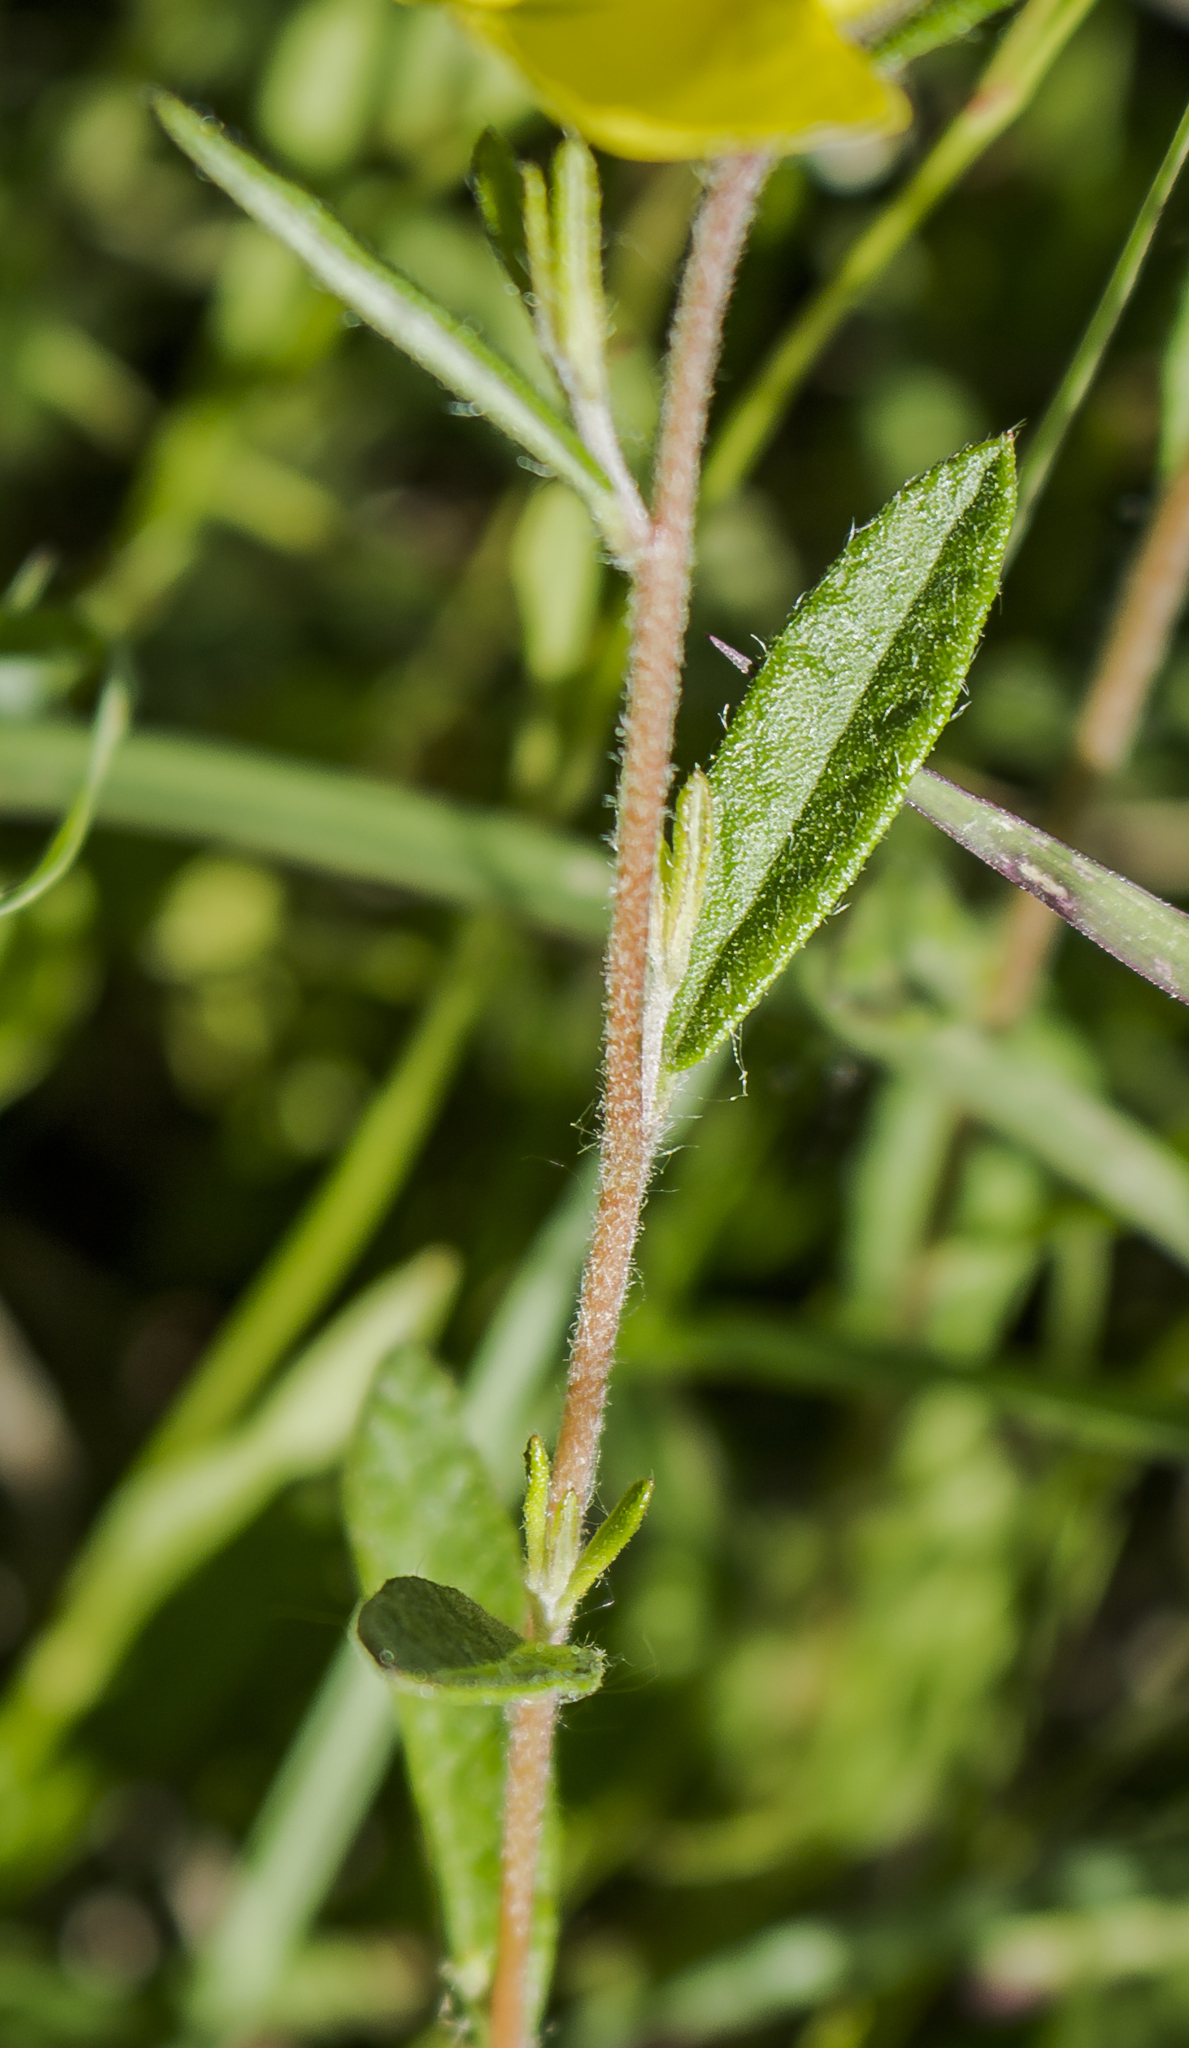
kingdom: Plantae
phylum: Tracheophyta
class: Magnoliopsida
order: Malvales
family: Cistaceae
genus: Crocanthemum
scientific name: Crocanthemum canadense
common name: Canada frostweed
